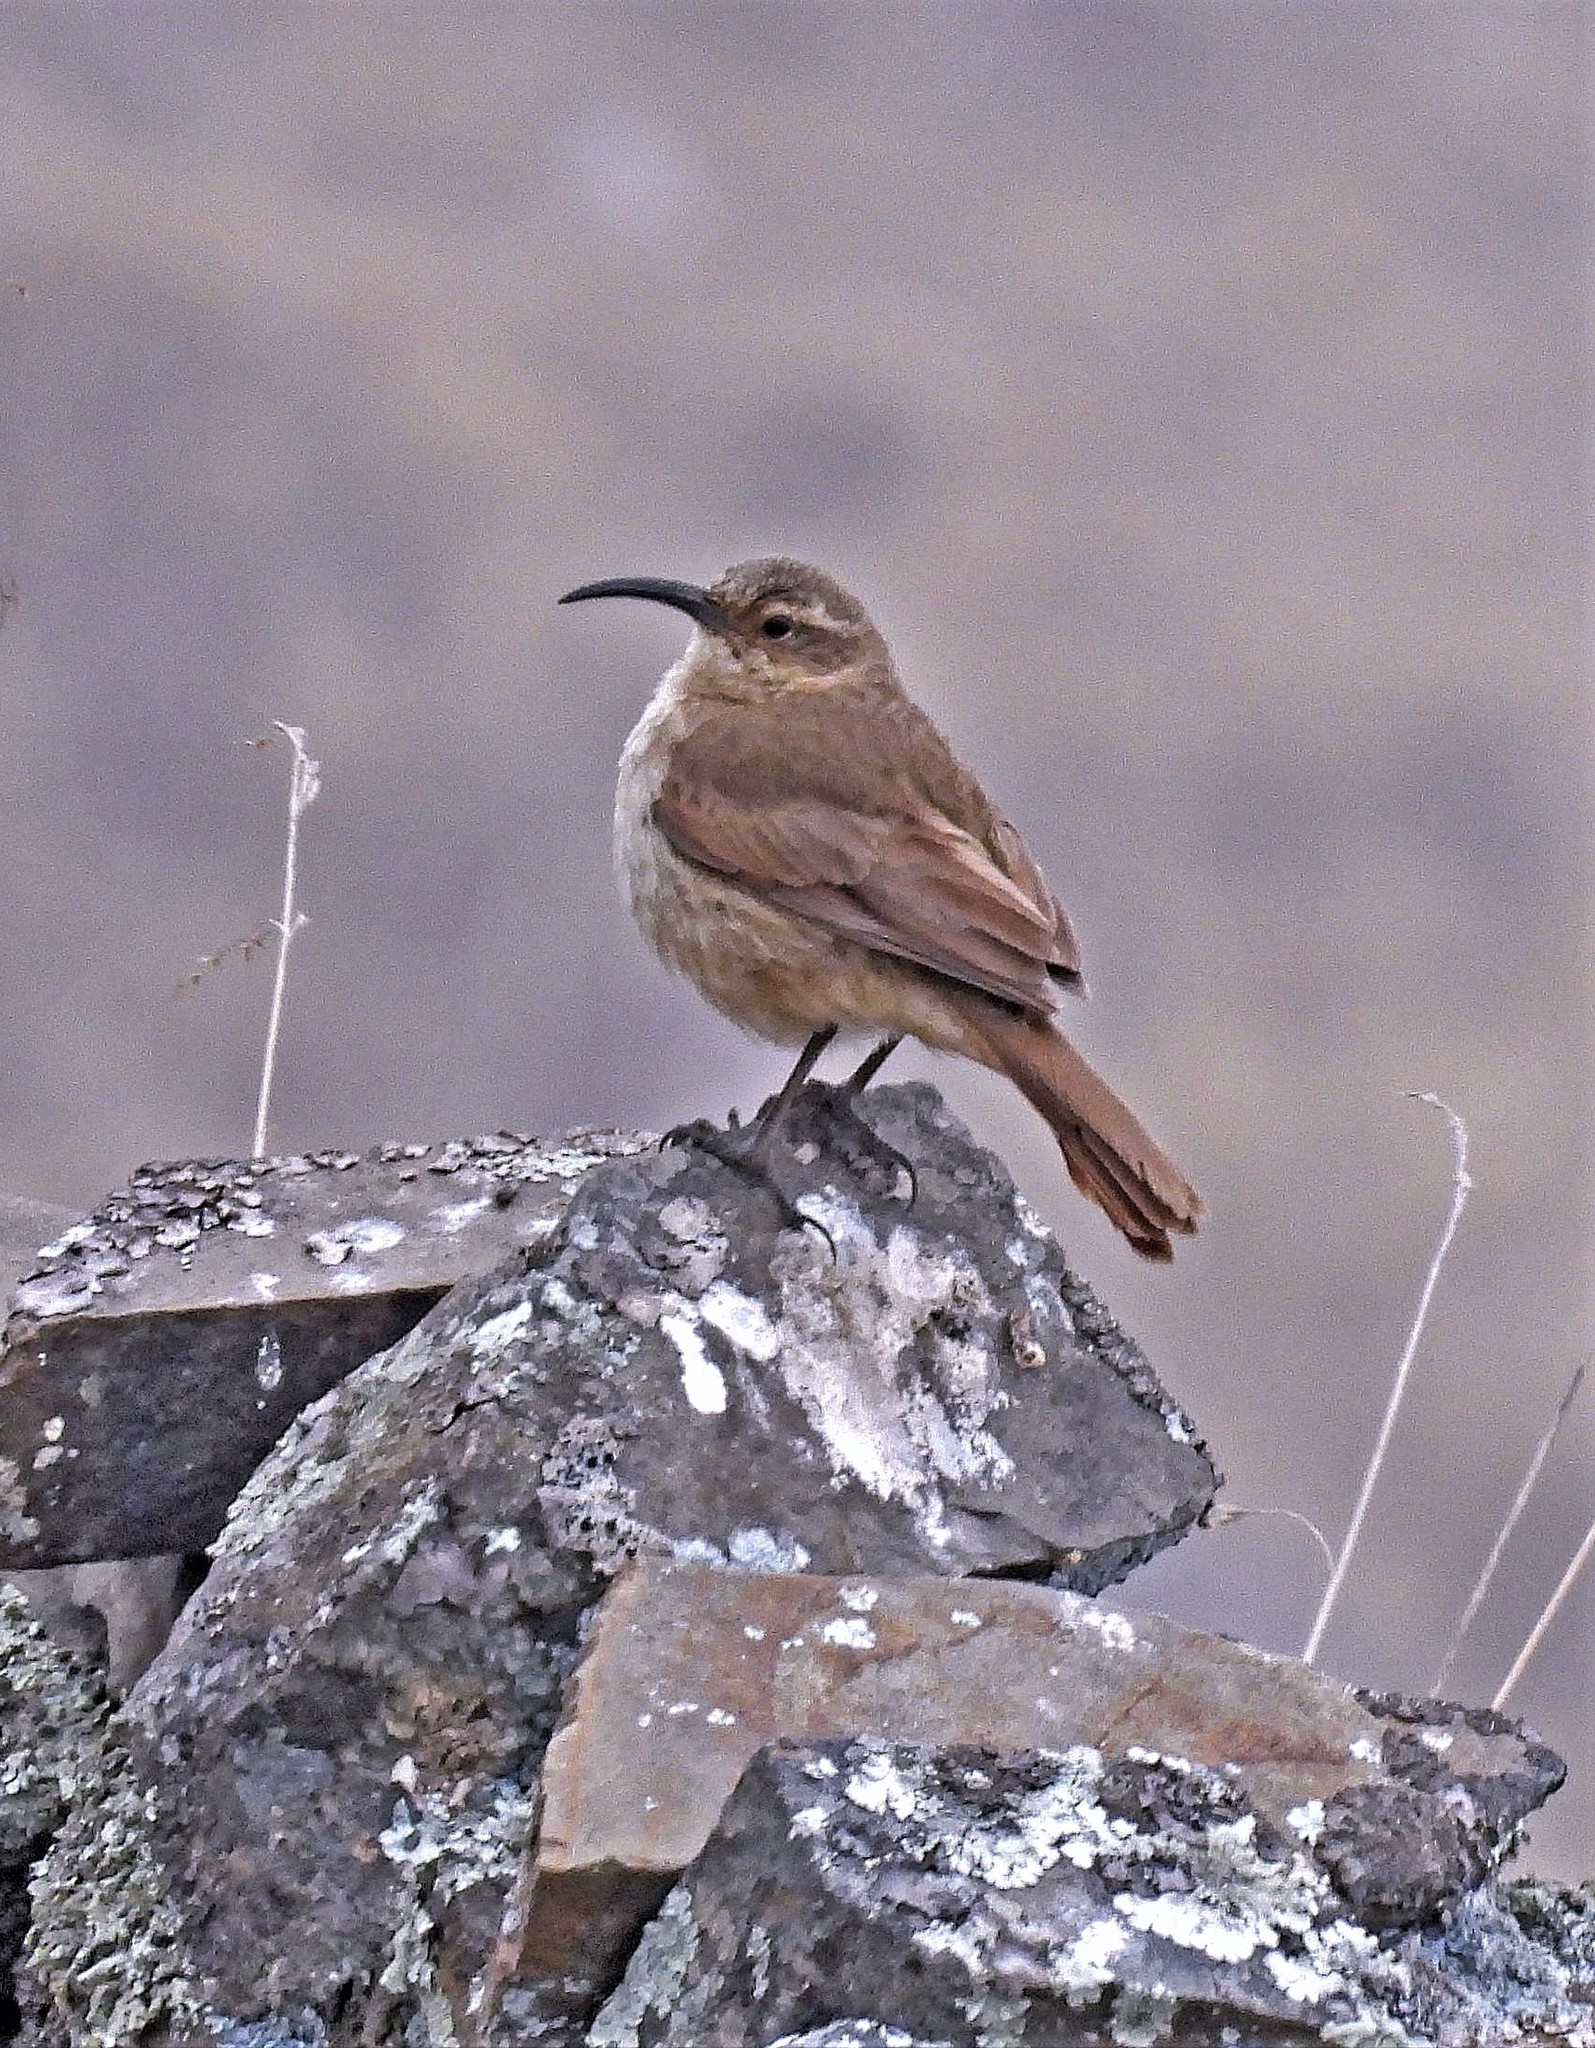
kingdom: Animalia
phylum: Chordata
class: Aves
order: Passeriformes
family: Furnariidae
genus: Upucerthia
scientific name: Upucerthia validirostris
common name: Buff-breasted earthcreeper
